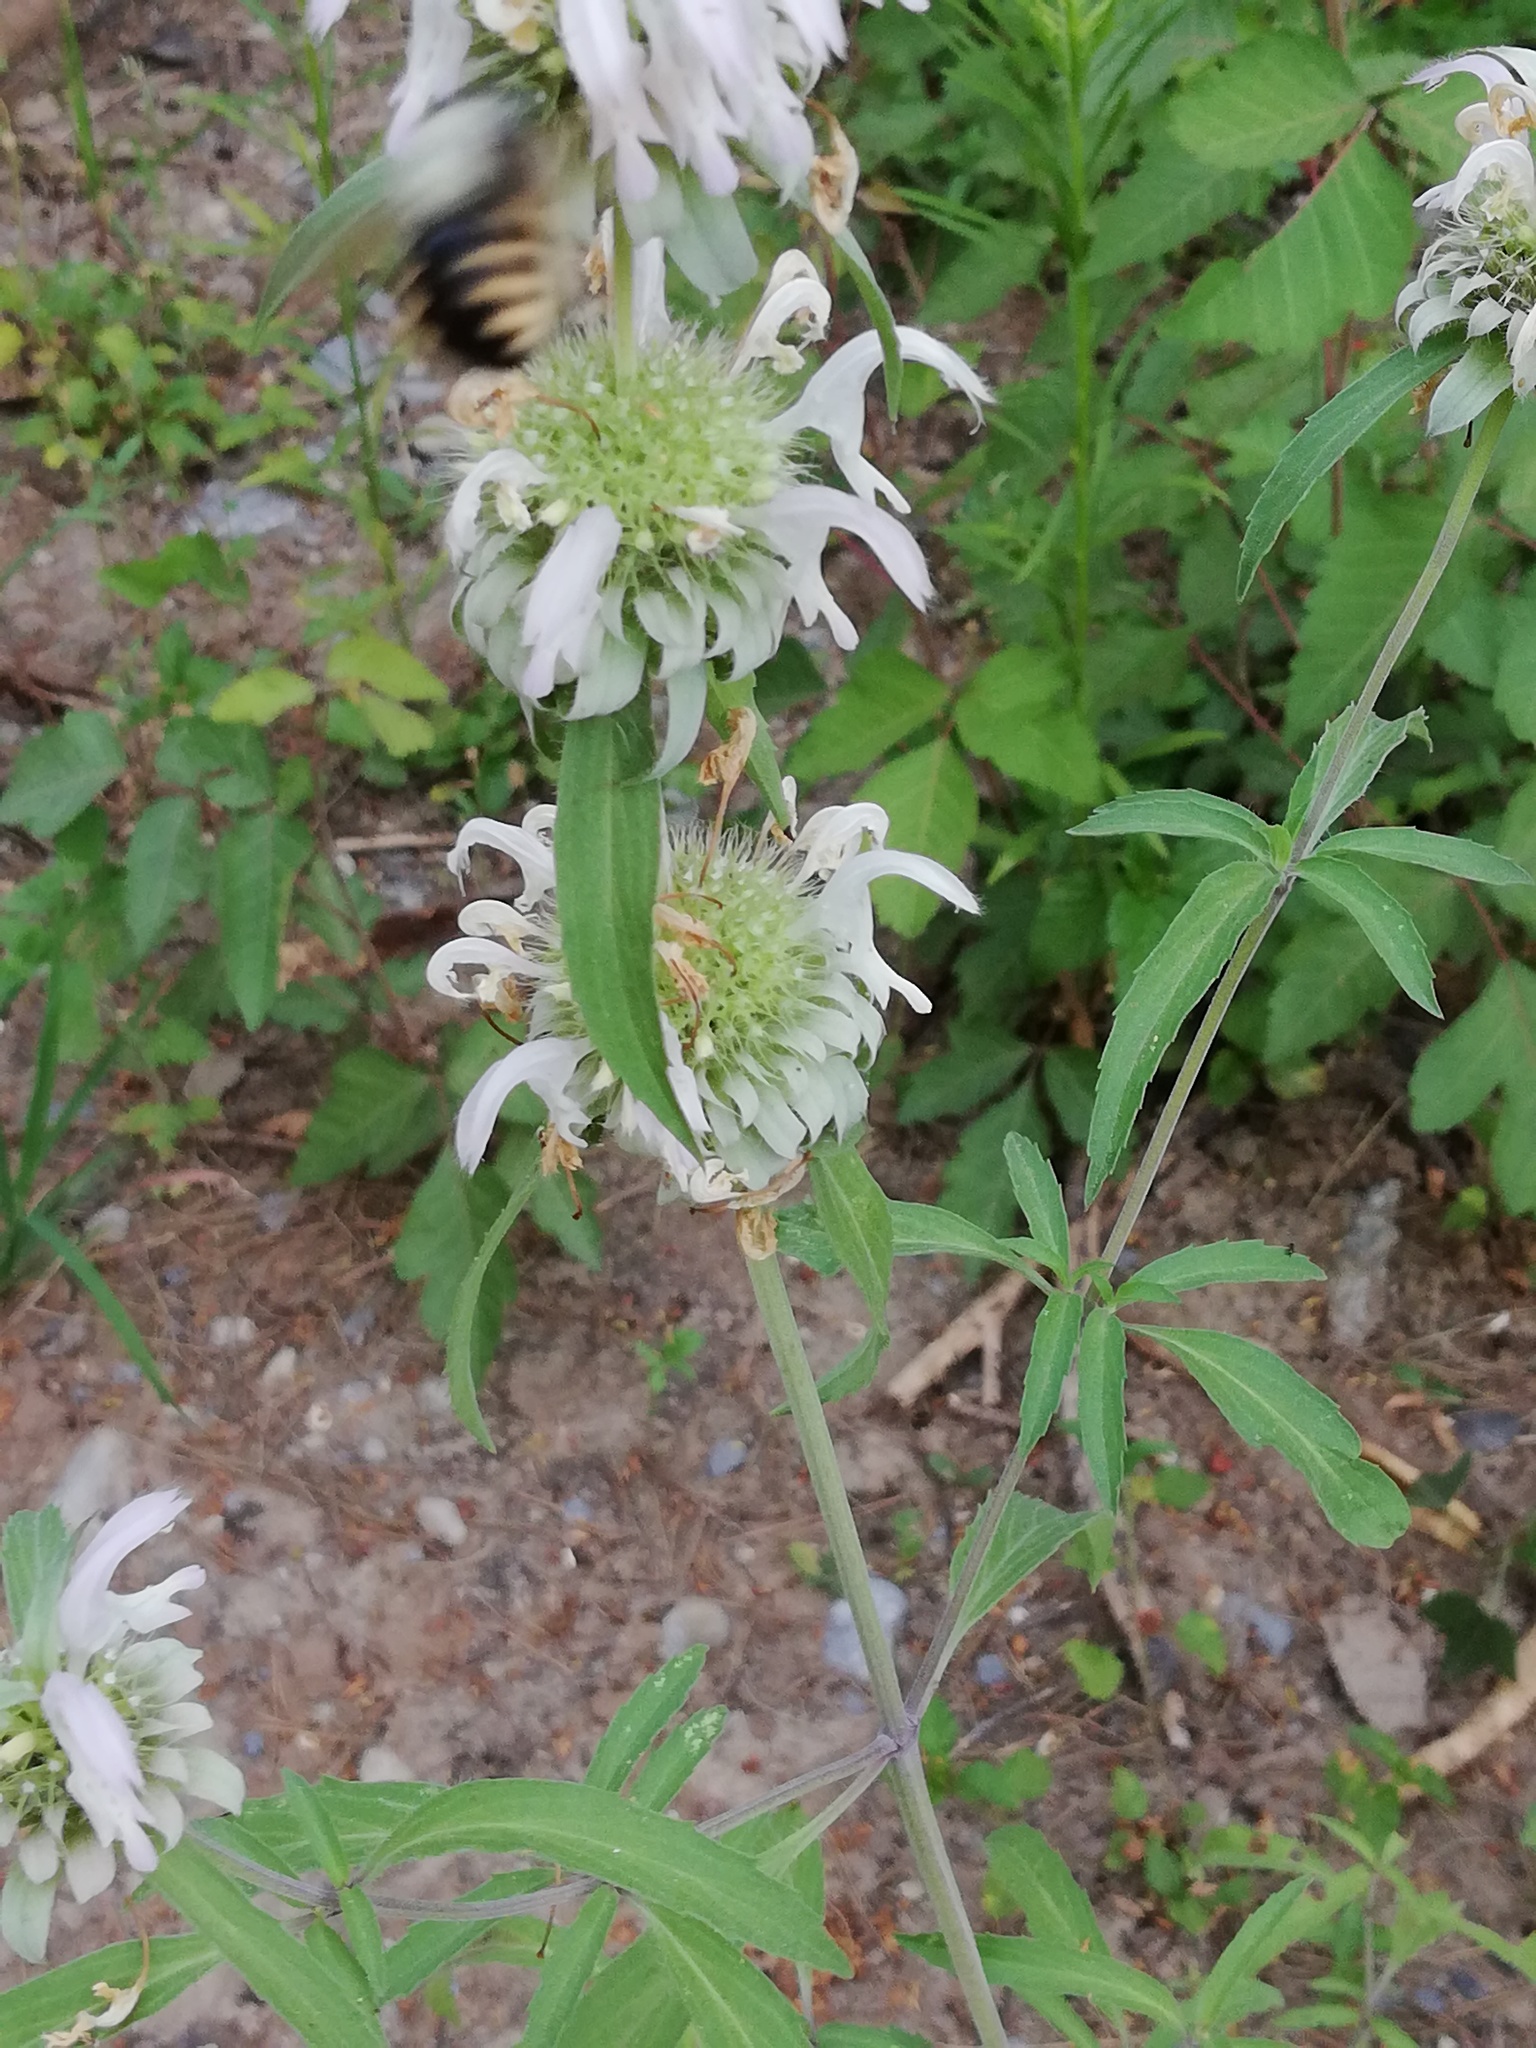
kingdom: Animalia
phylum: Arthropoda
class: Insecta
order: Hymenoptera
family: Apidae
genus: Xylocopa
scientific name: Xylocopa tabaniformis
